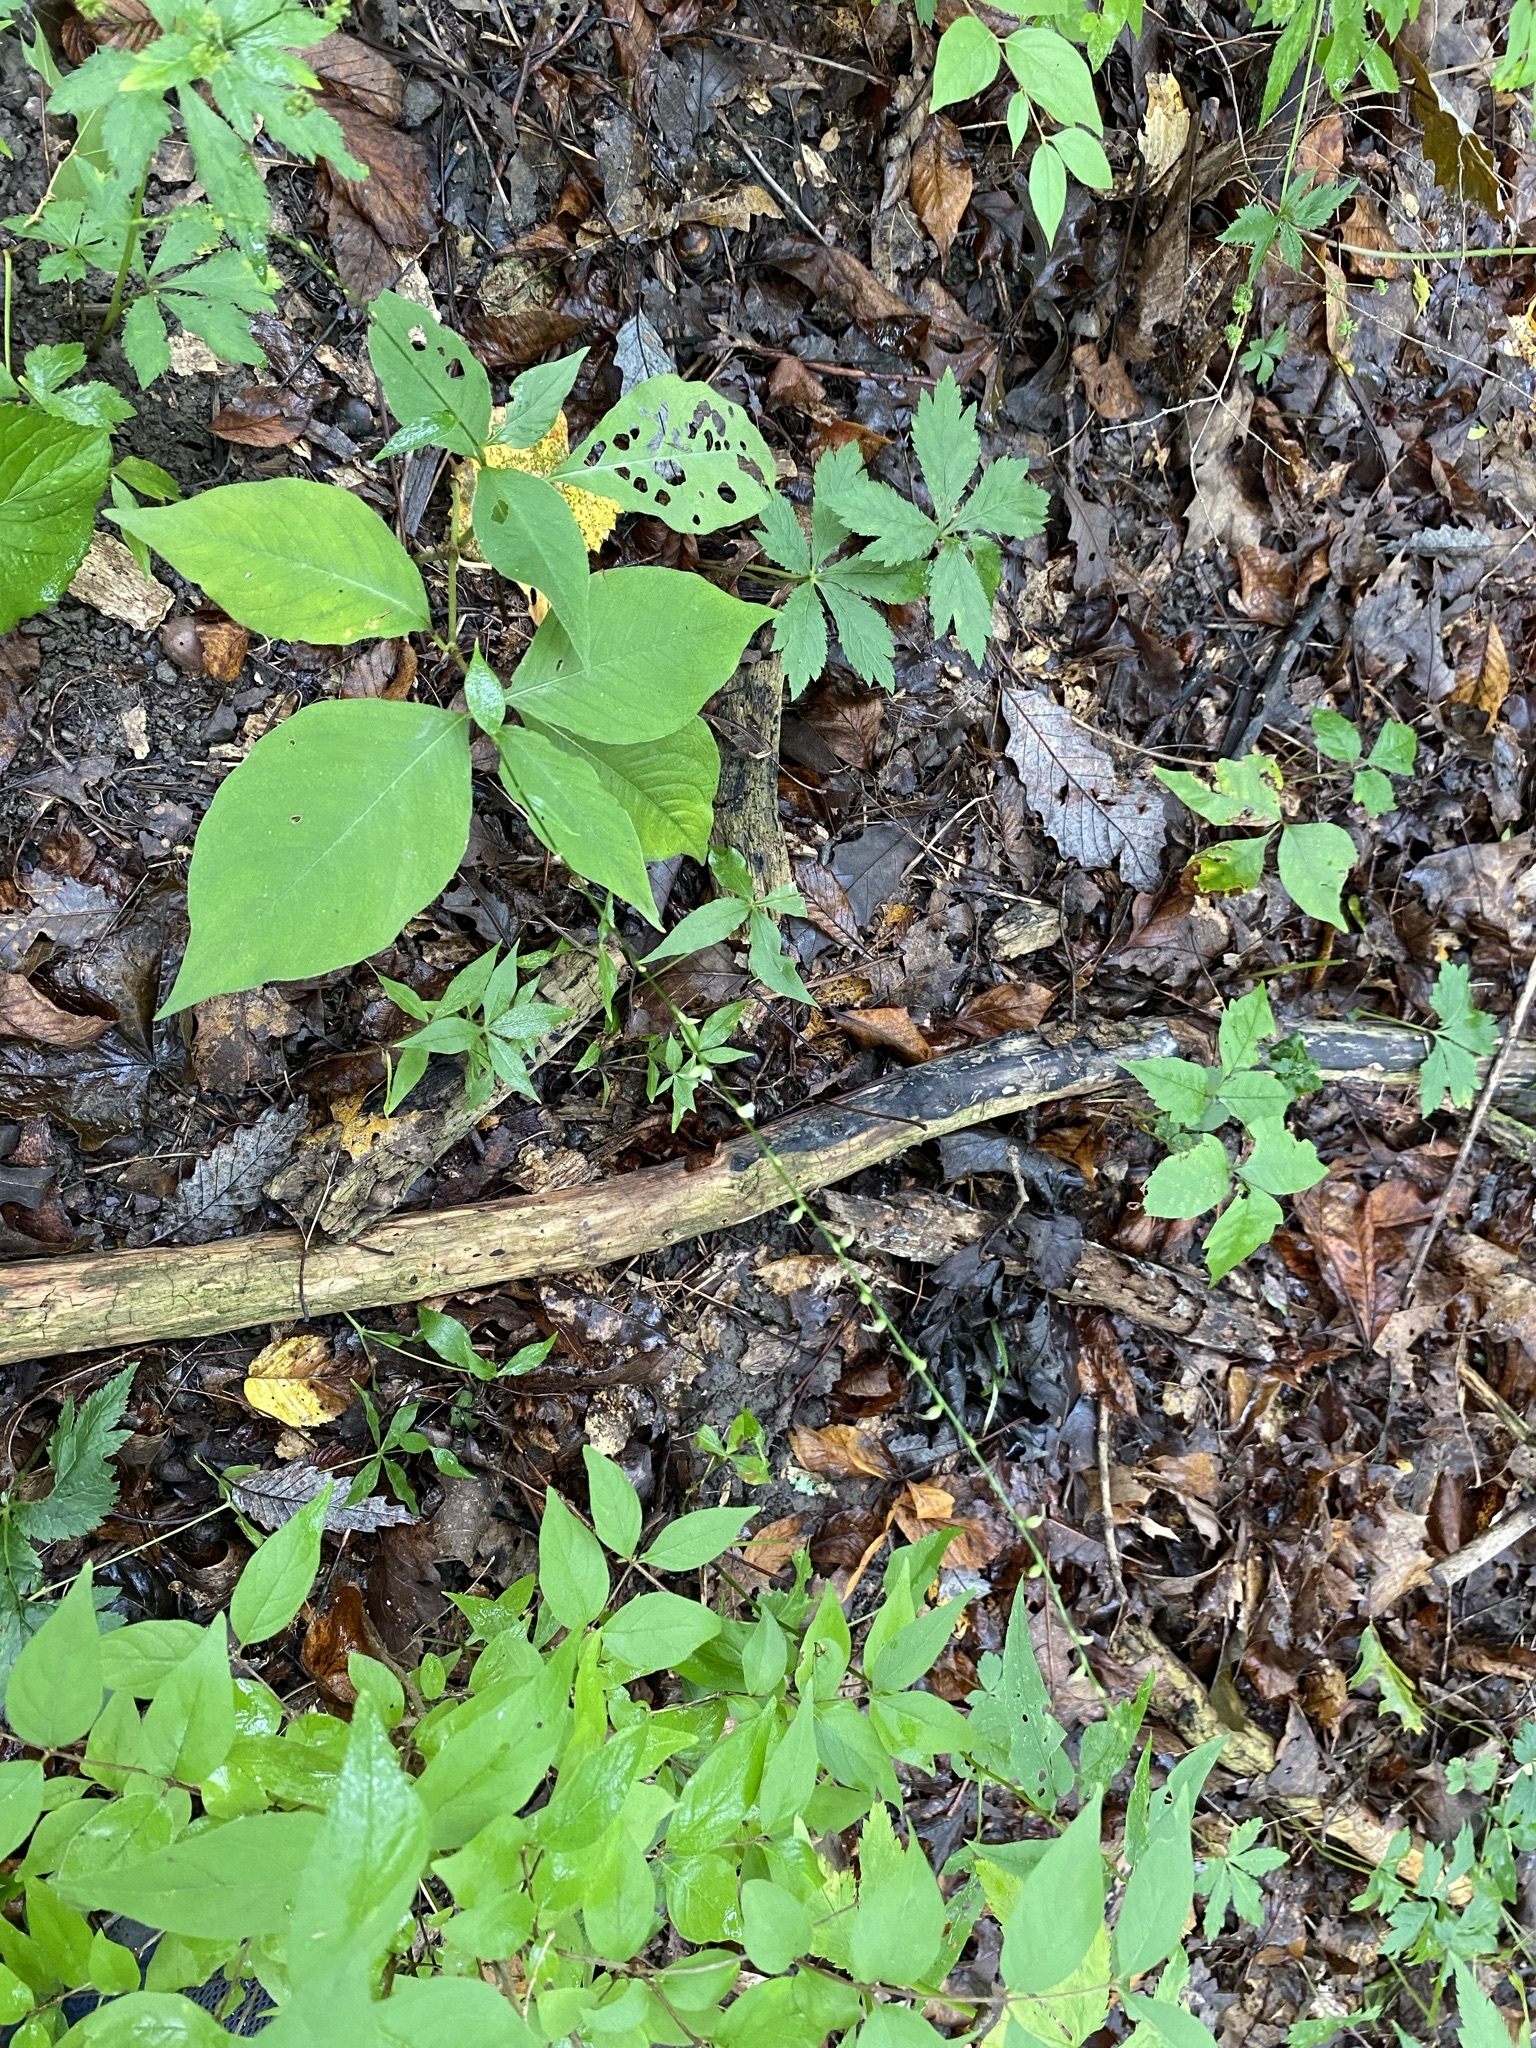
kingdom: Plantae
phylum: Tracheophyta
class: Magnoliopsida
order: Caryophyllales
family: Polygonaceae
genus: Persicaria
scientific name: Persicaria virginiana
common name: Jumpseed
